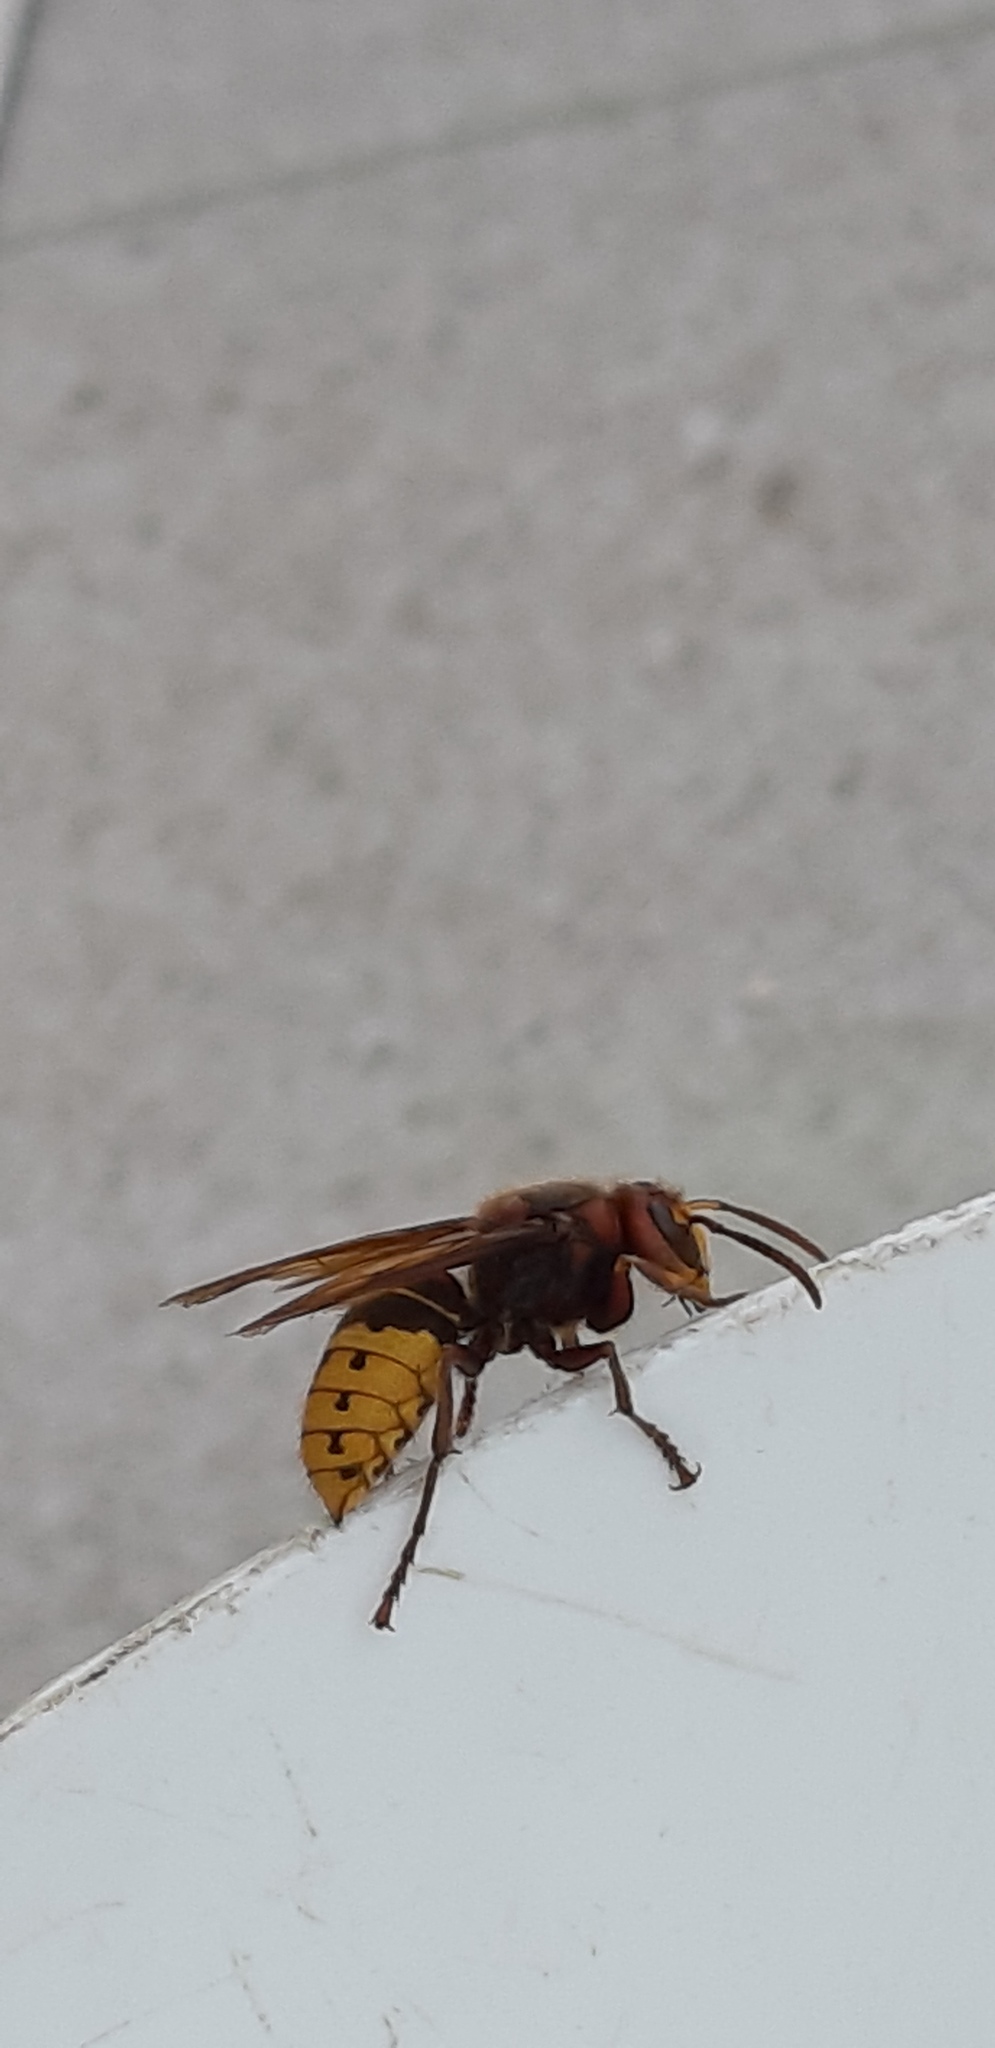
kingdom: Animalia
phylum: Arthropoda
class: Insecta
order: Hymenoptera
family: Vespidae
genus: Vespa
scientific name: Vespa crabro
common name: Hornet
